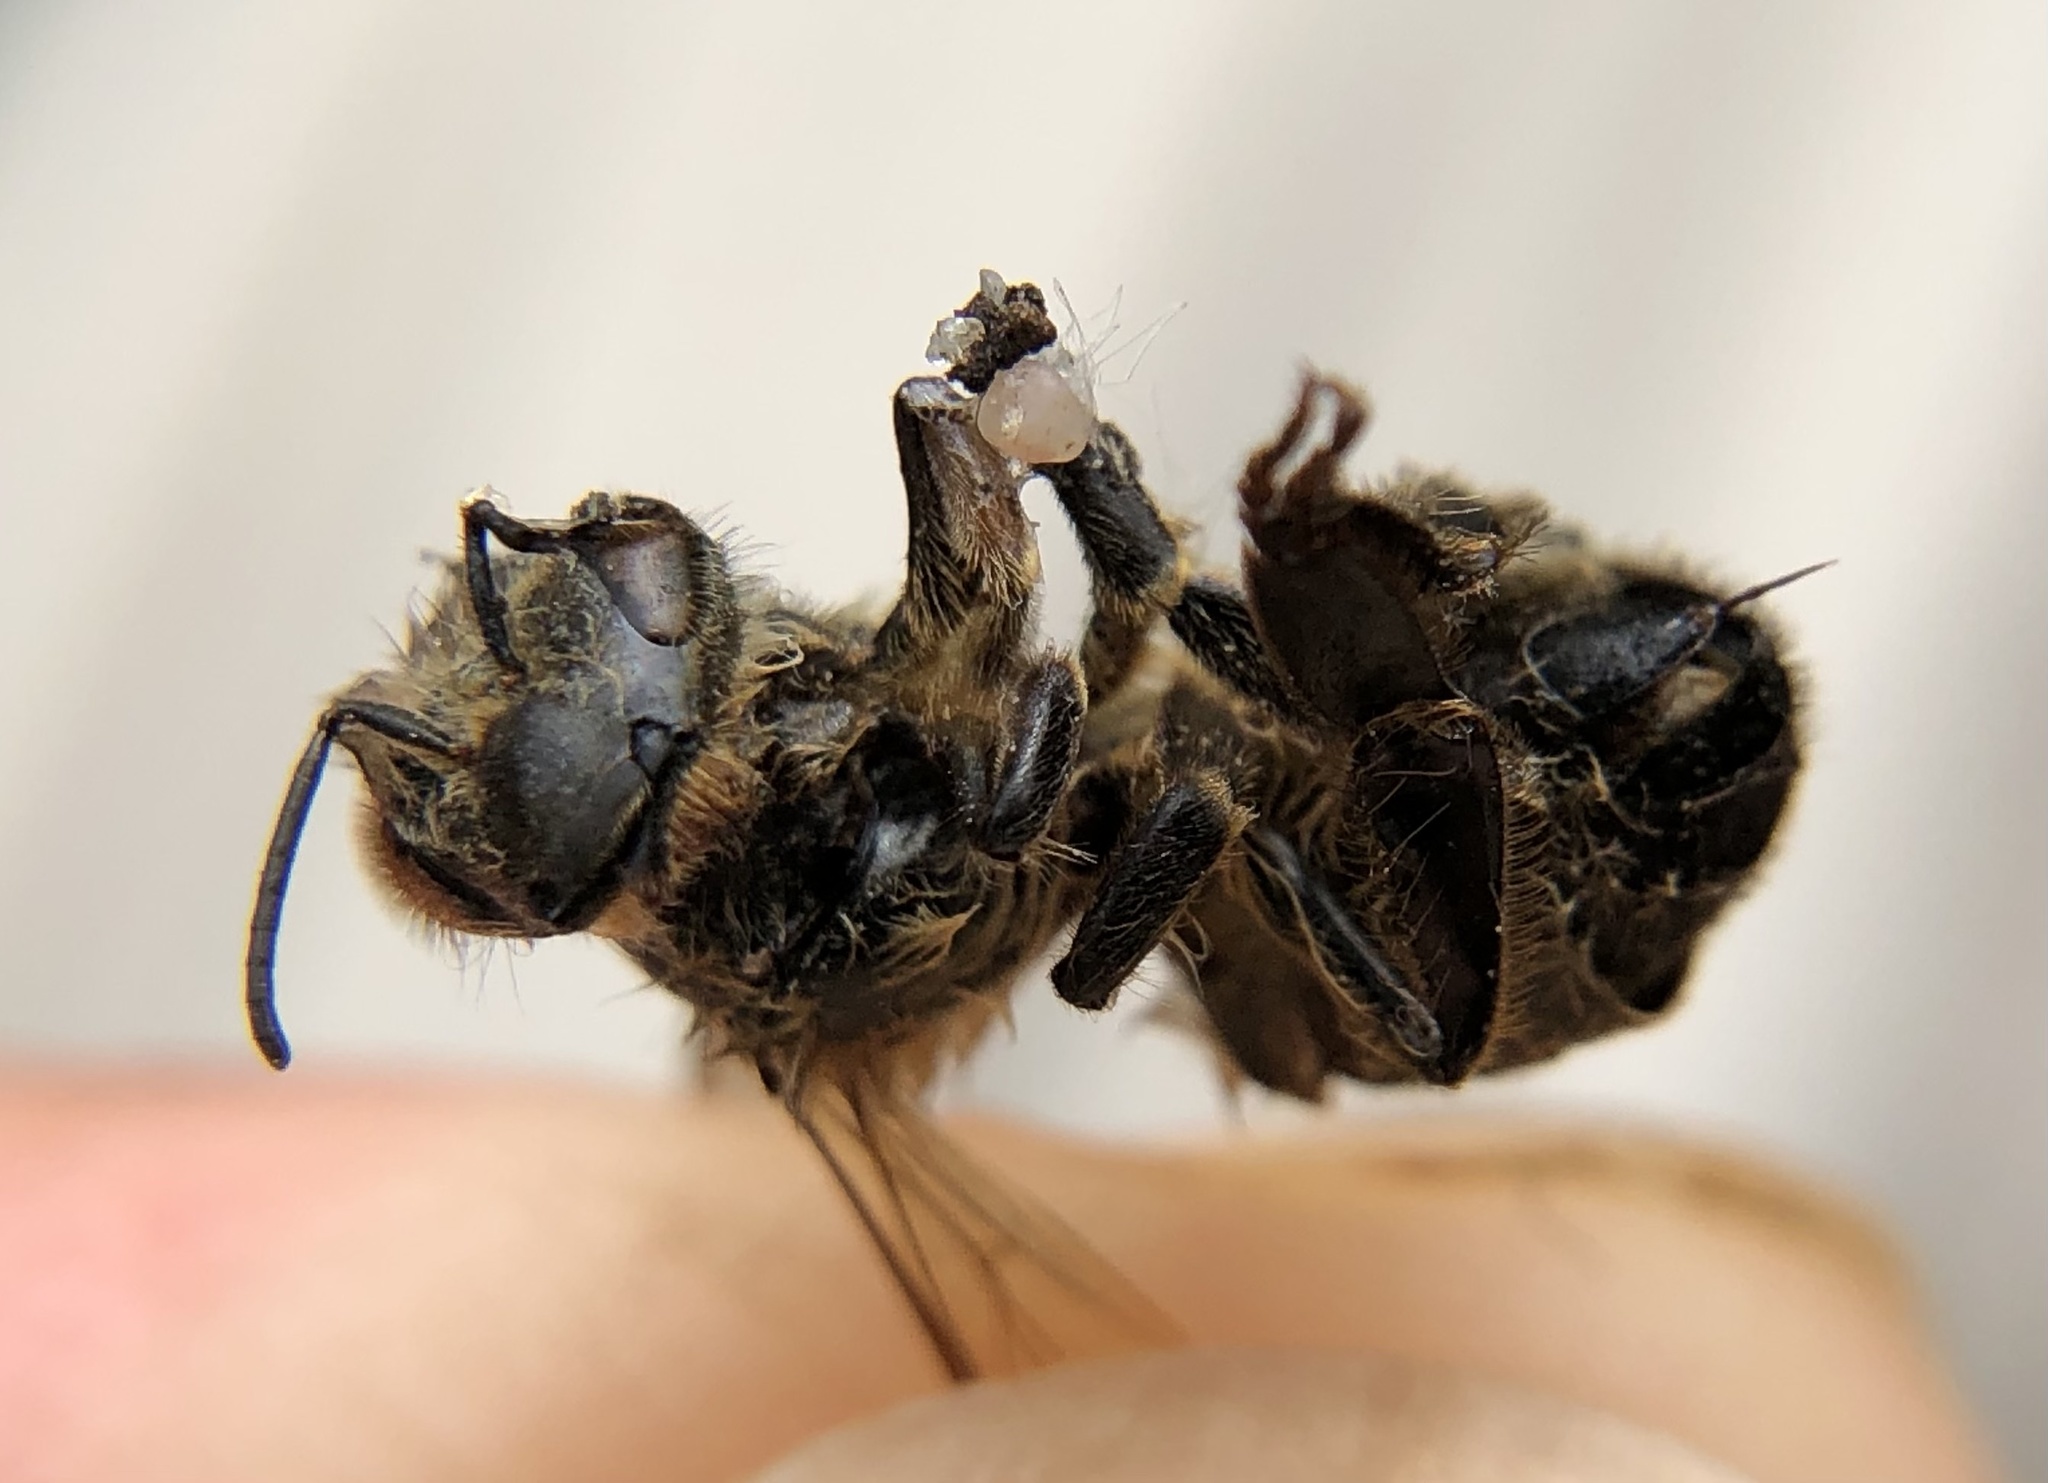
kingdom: Animalia
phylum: Arthropoda
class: Insecta
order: Hymenoptera
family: Apidae
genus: Apis
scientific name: Apis mellifera
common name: Honey bee
